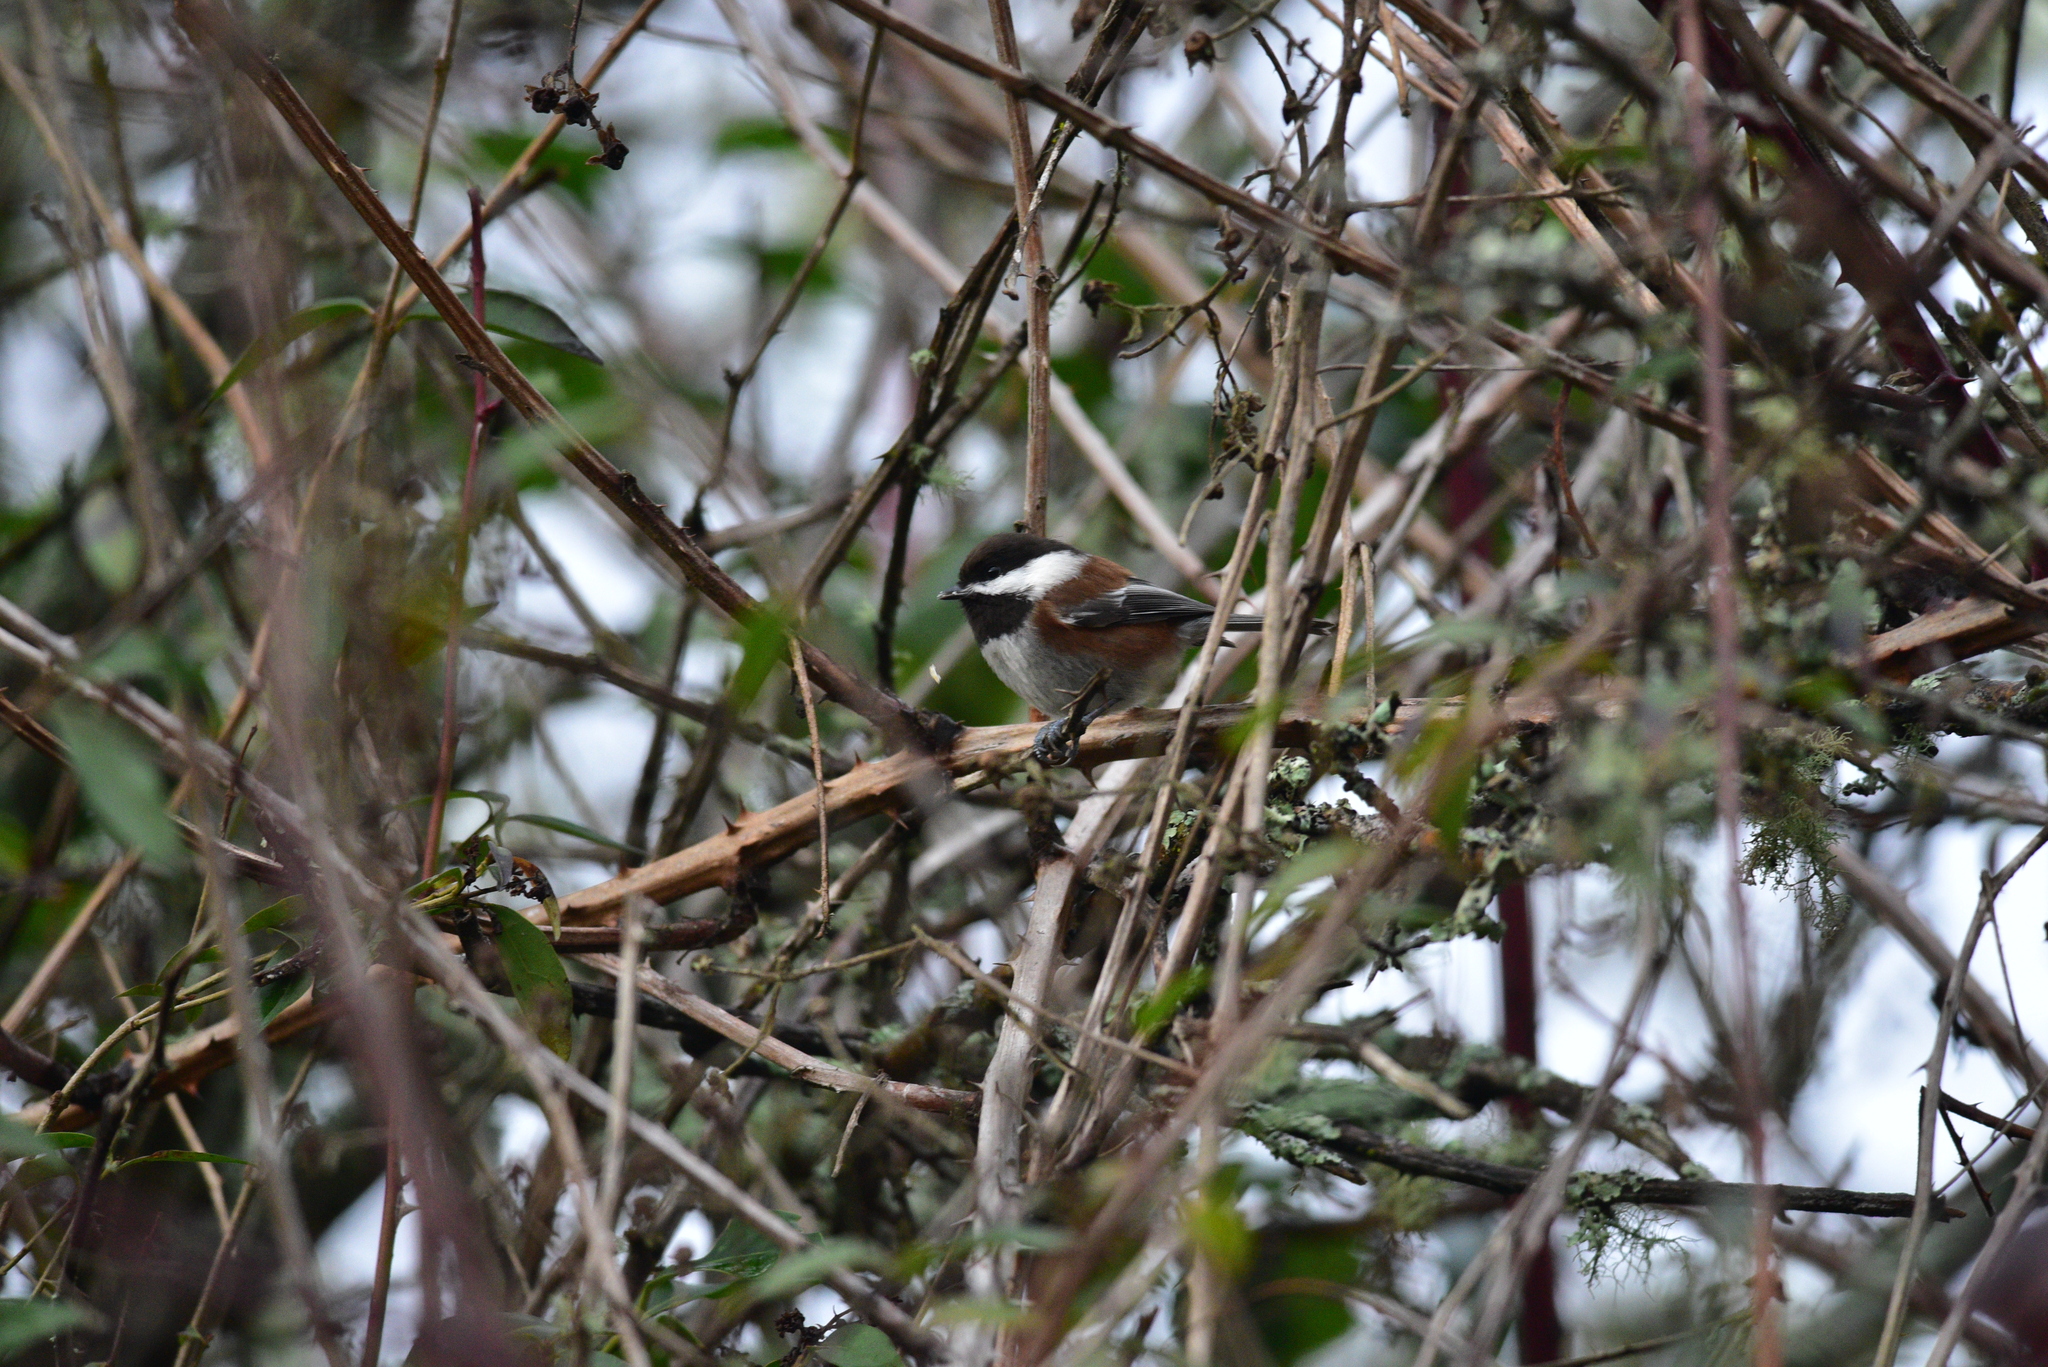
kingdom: Animalia
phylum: Chordata
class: Aves
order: Passeriformes
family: Paridae
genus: Poecile
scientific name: Poecile rufescens
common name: Chestnut-backed chickadee
